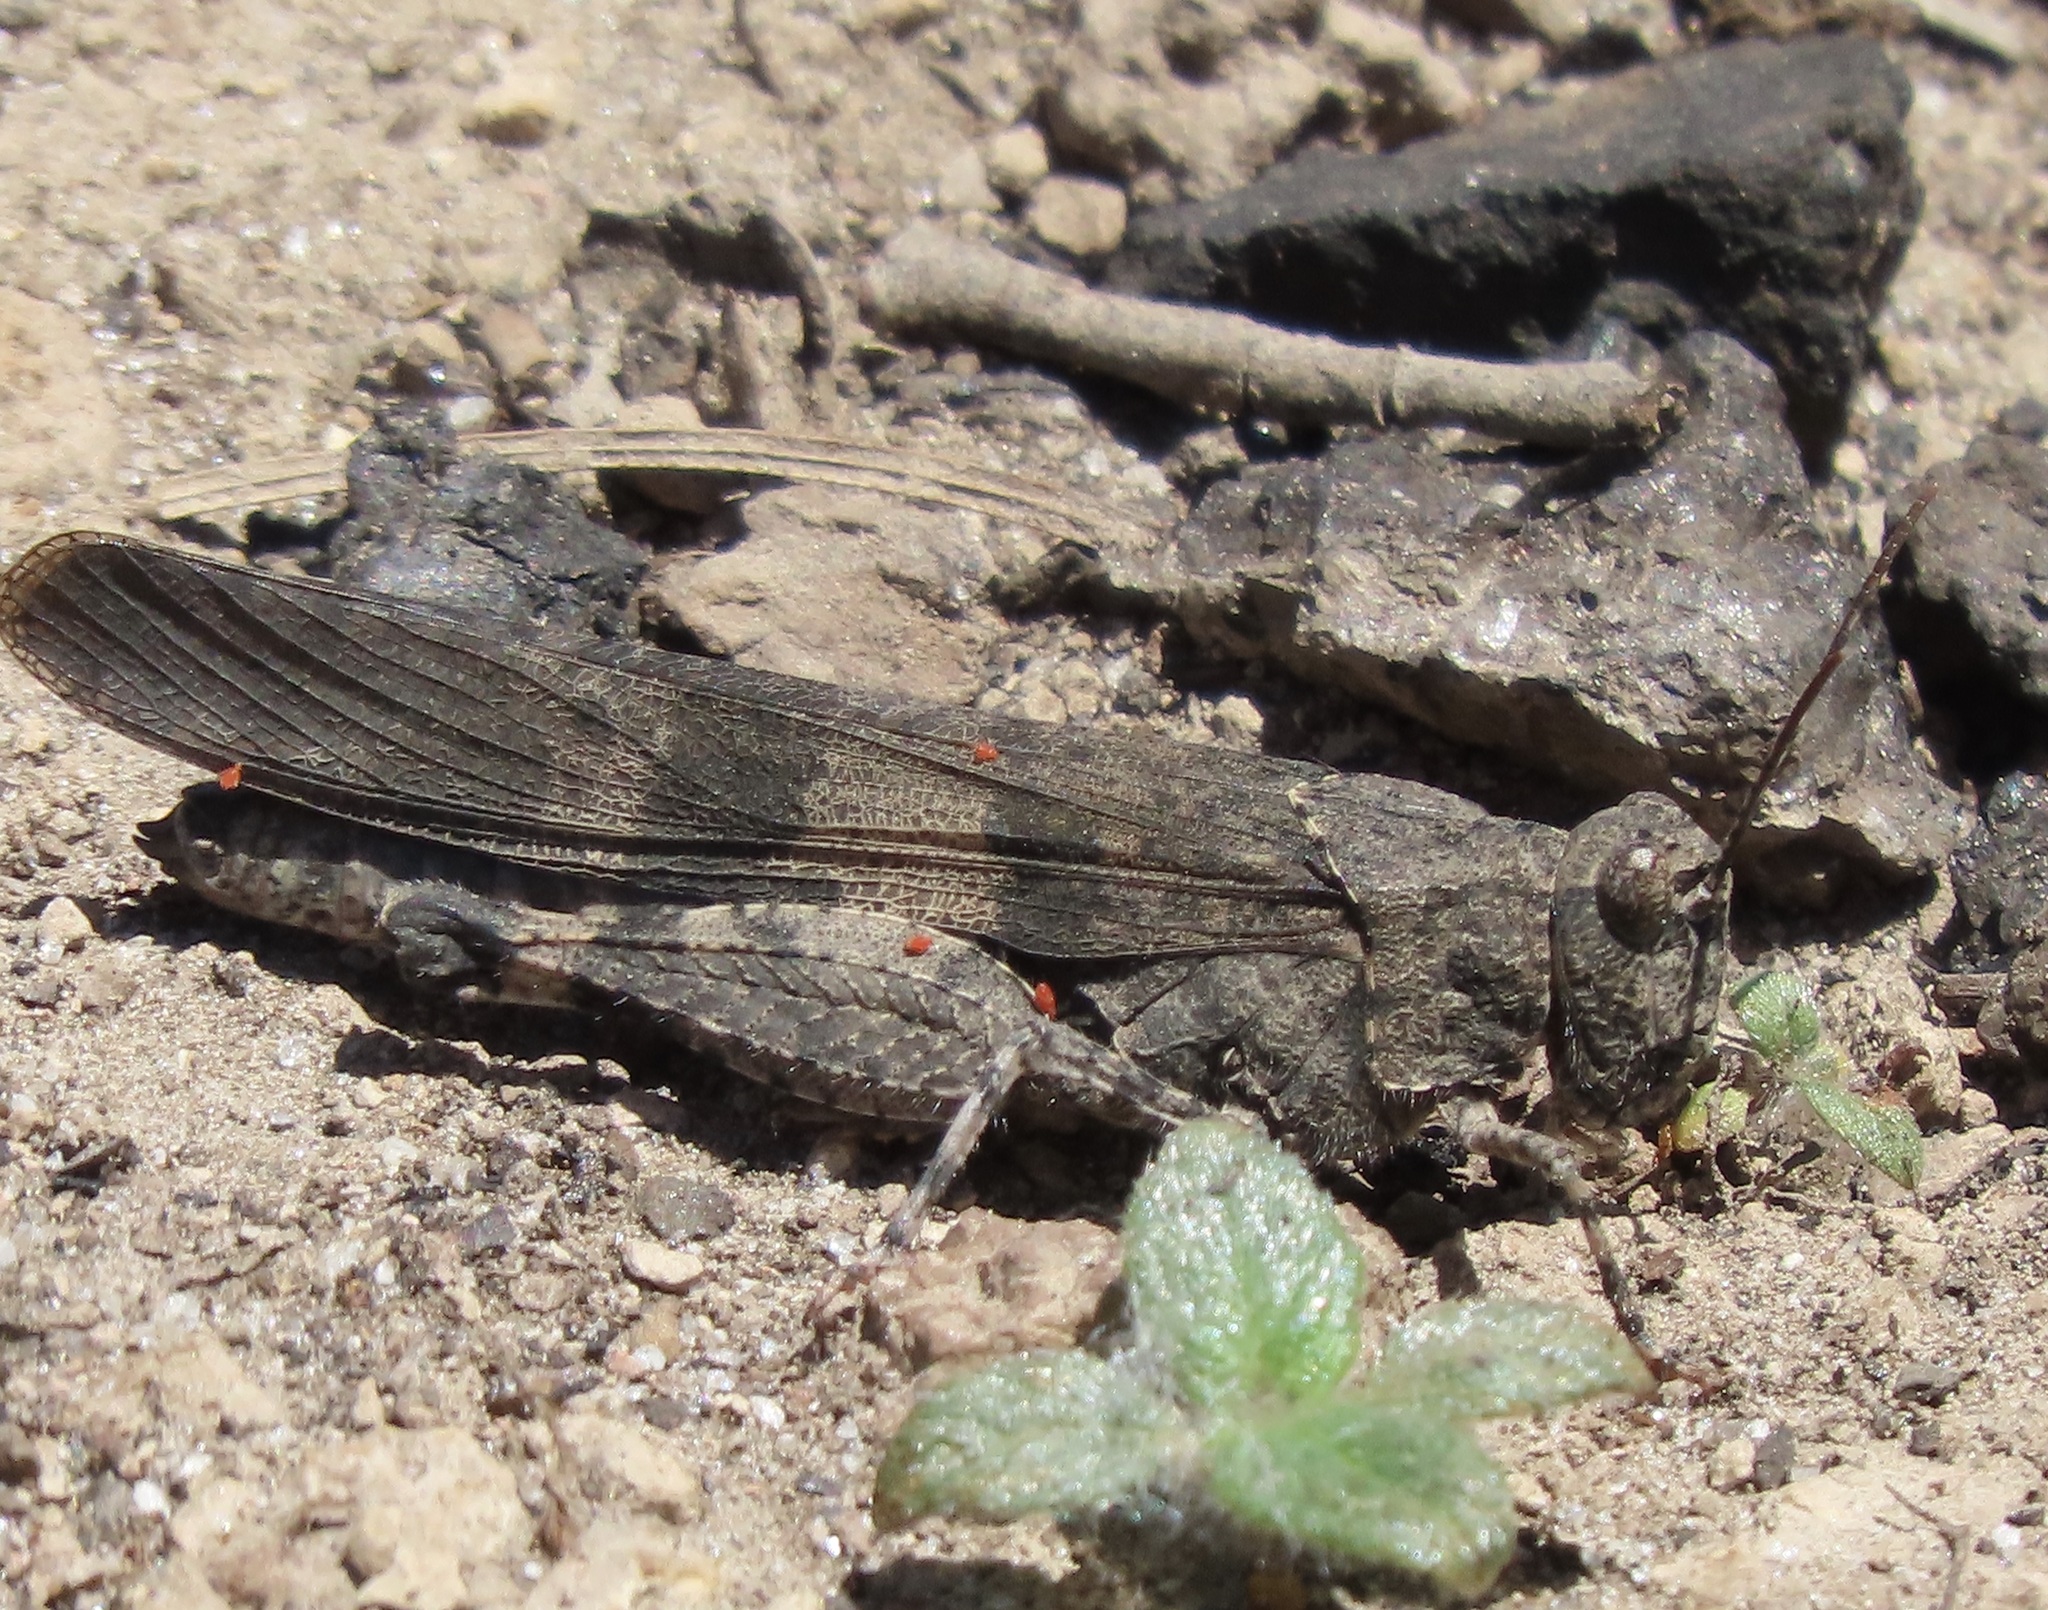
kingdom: Animalia
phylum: Arthropoda
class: Insecta
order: Orthoptera
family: Acrididae
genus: Trimerotropis
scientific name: Trimerotropis fontana
